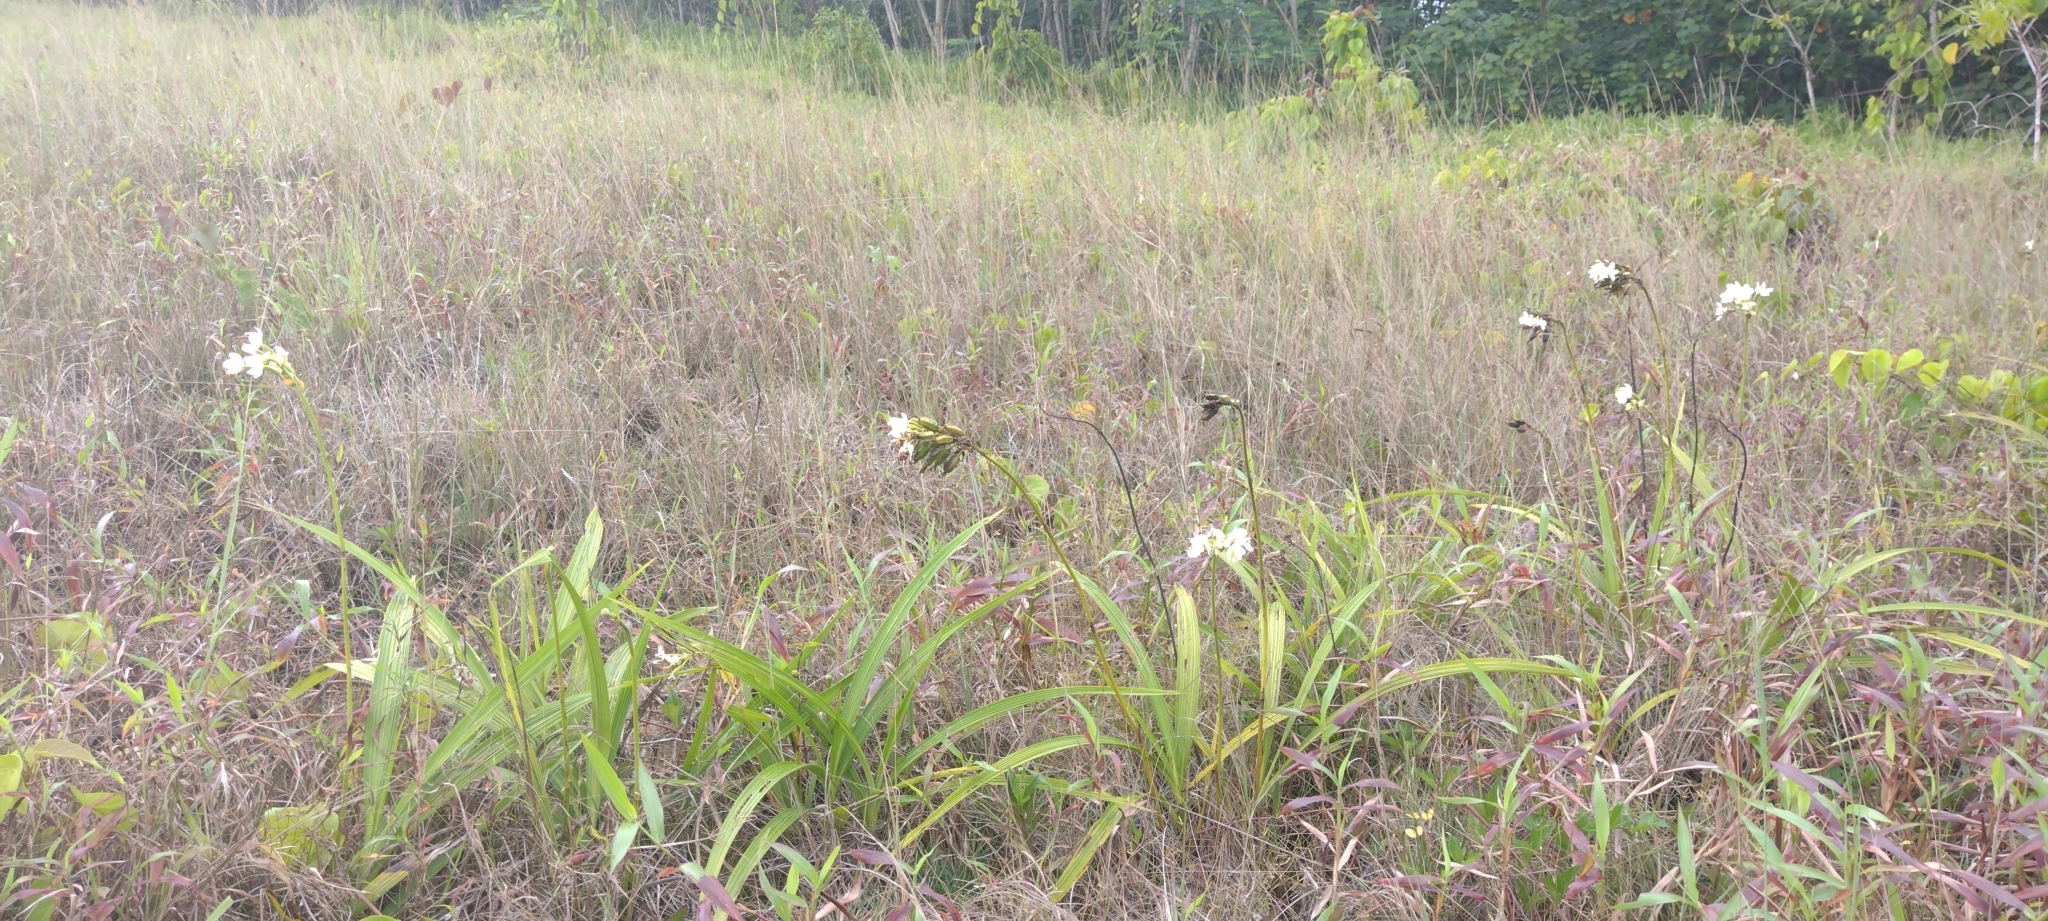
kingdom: Plantae
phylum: Tracheophyta
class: Liliopsida
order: Asparagales
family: Orchidaceae
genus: Spathoglottis
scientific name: Spathoglottis micronesiaca
